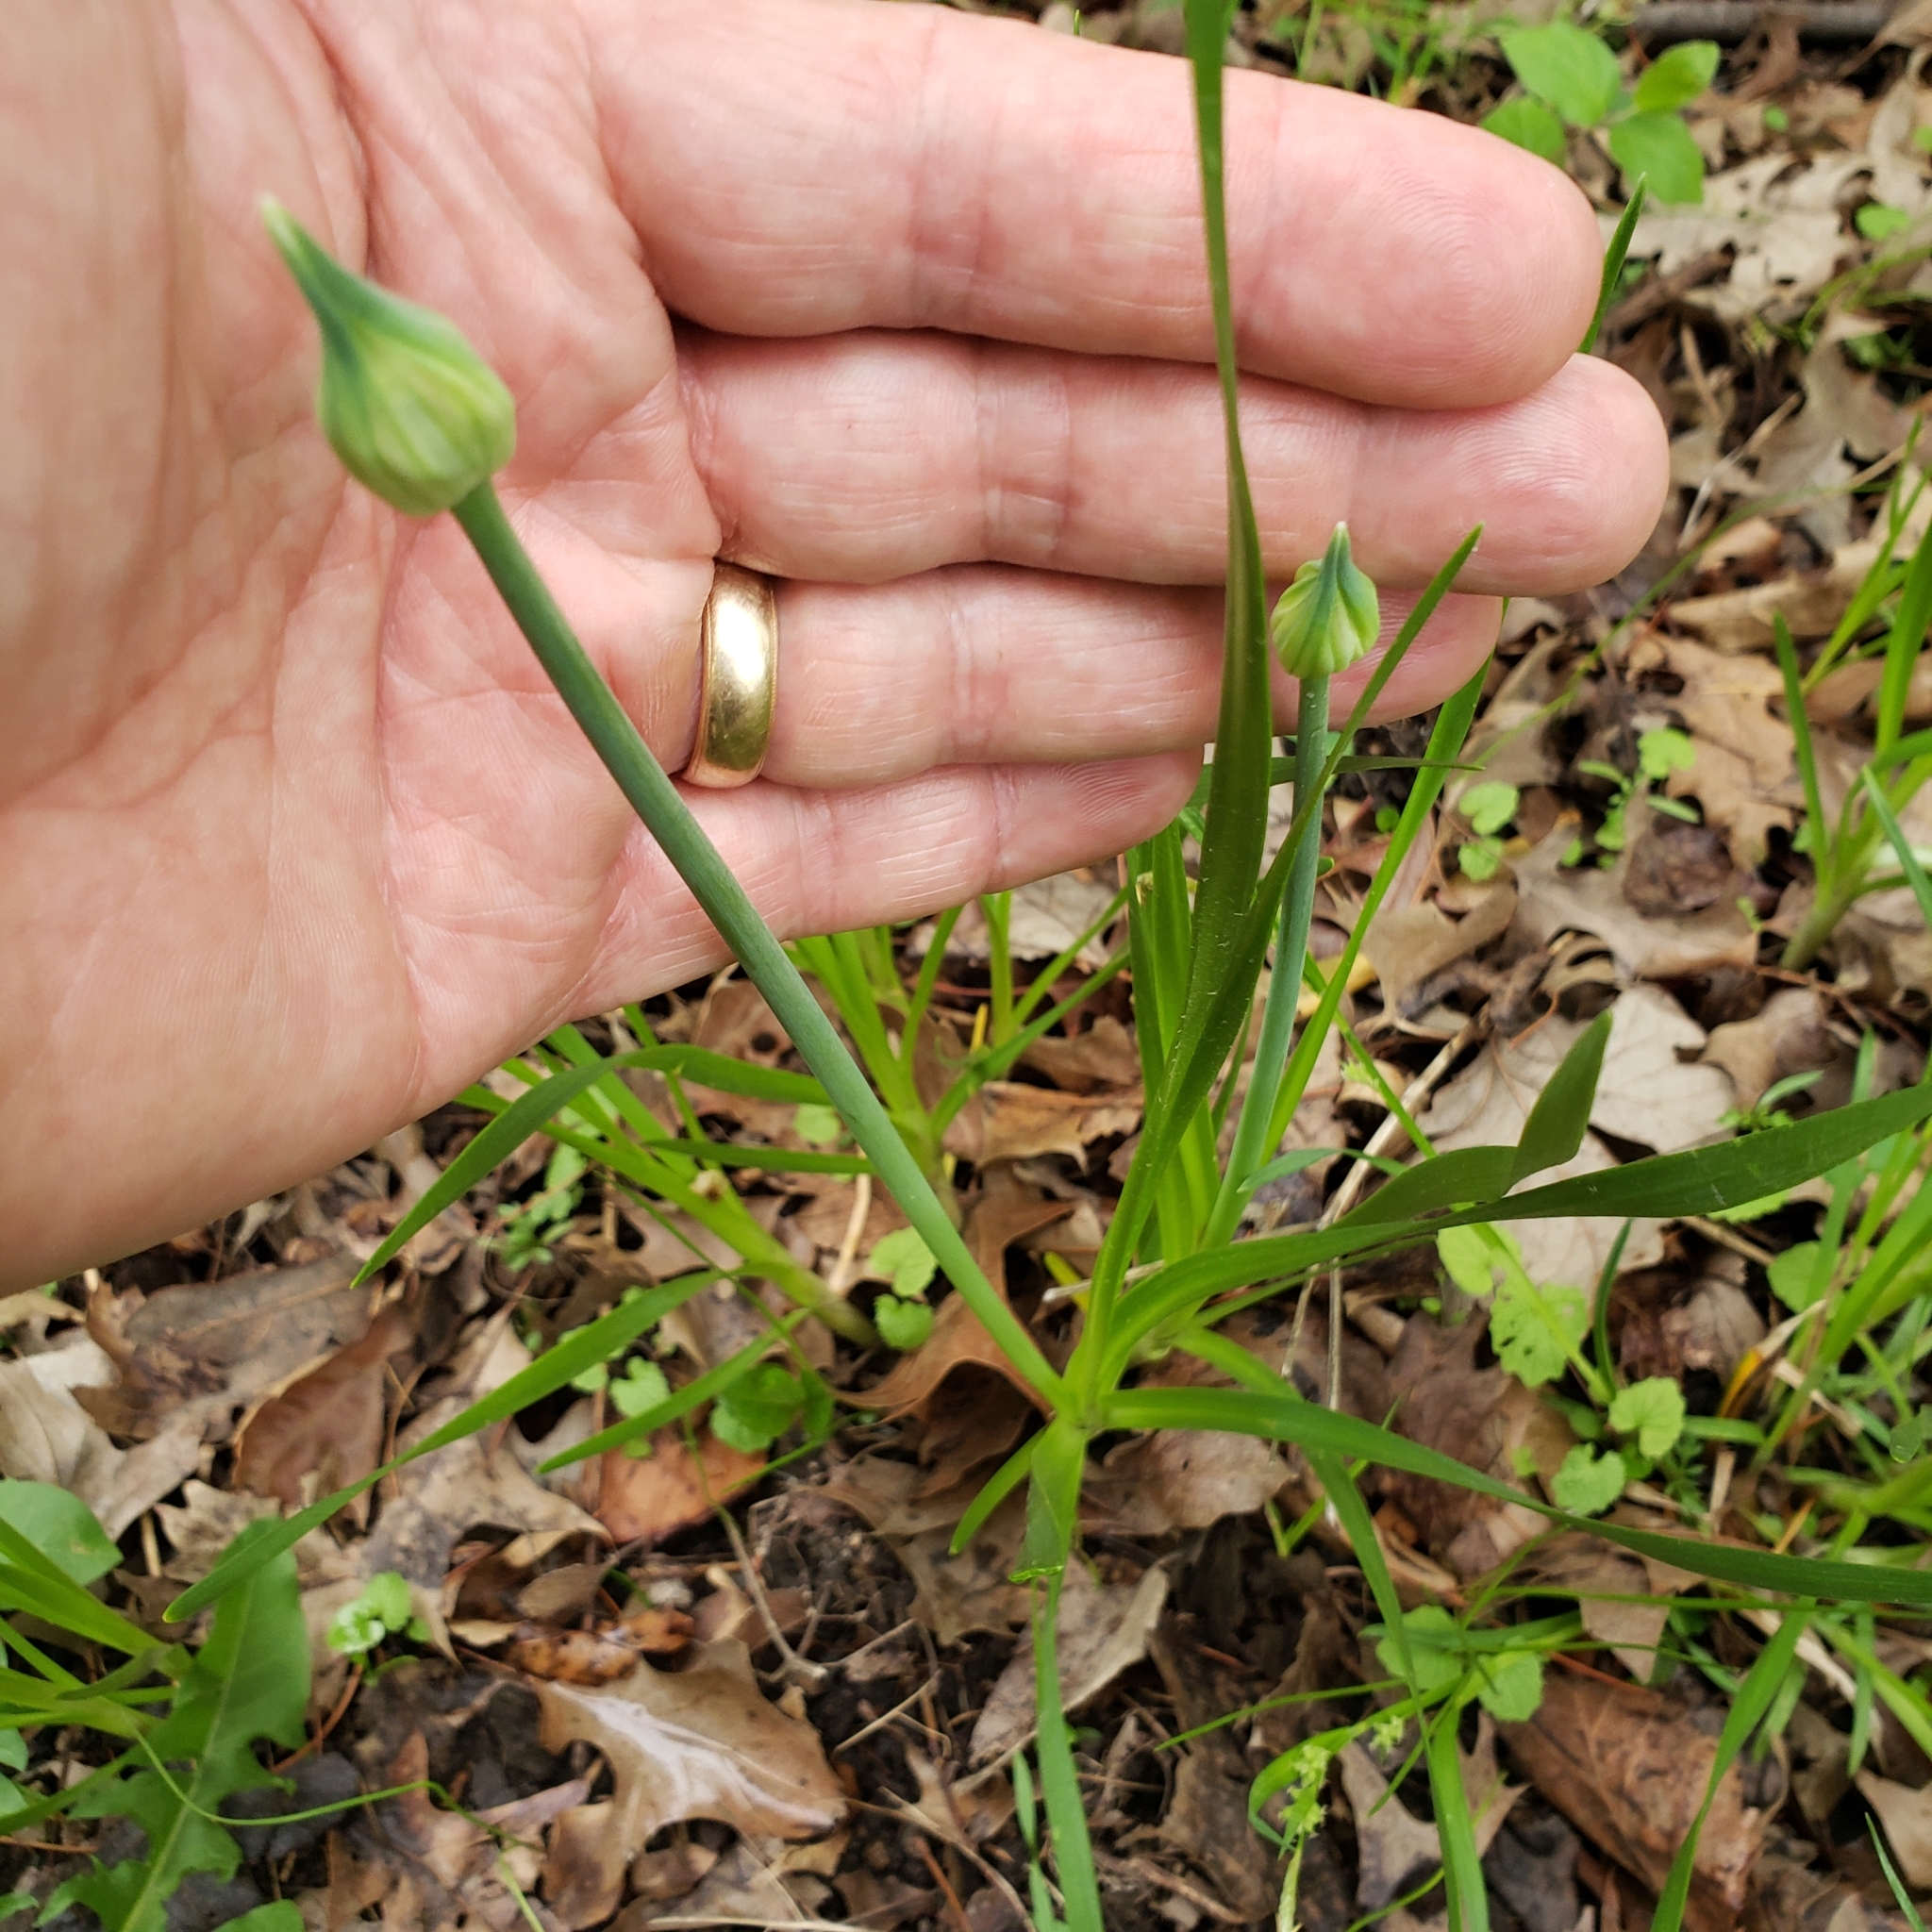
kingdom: Plantae
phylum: Tracheophyta
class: Liliopsida
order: Asparagales
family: Amaryllidaceae
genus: Allium
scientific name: Allium canadense
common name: Meadow garlic
